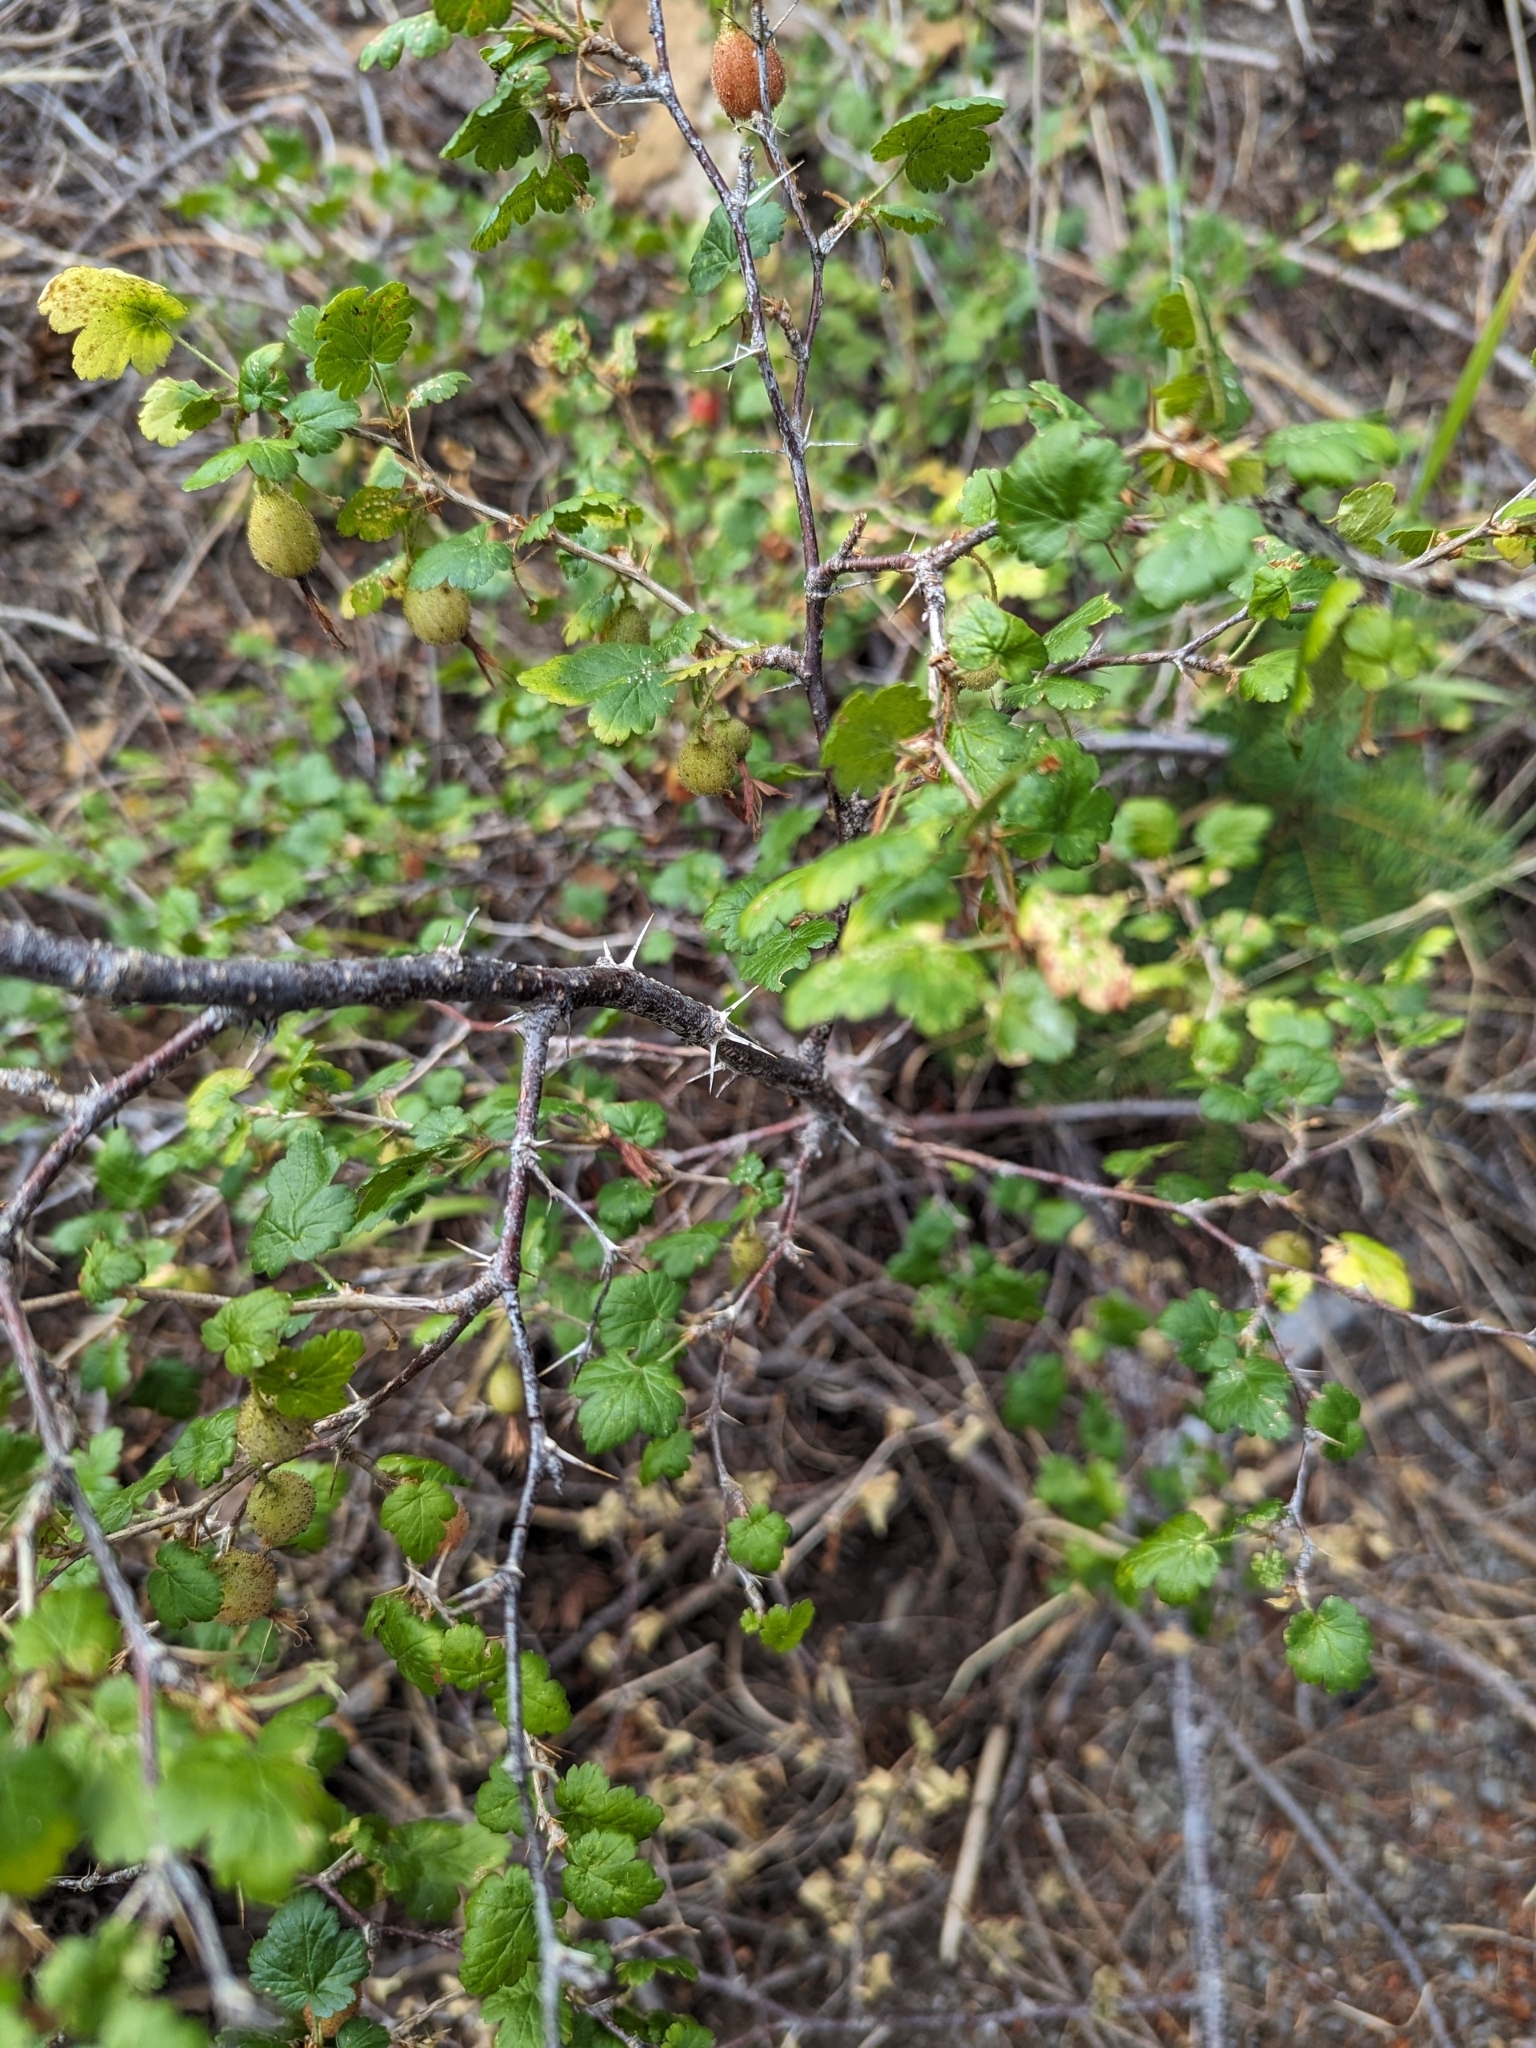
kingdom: Plantae
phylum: Tracheophyta
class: Magnoliopsida
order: Saxifragales
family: Grossulariaceae
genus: Ribes
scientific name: Ribes lobbii
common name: Gummy gooseberry
